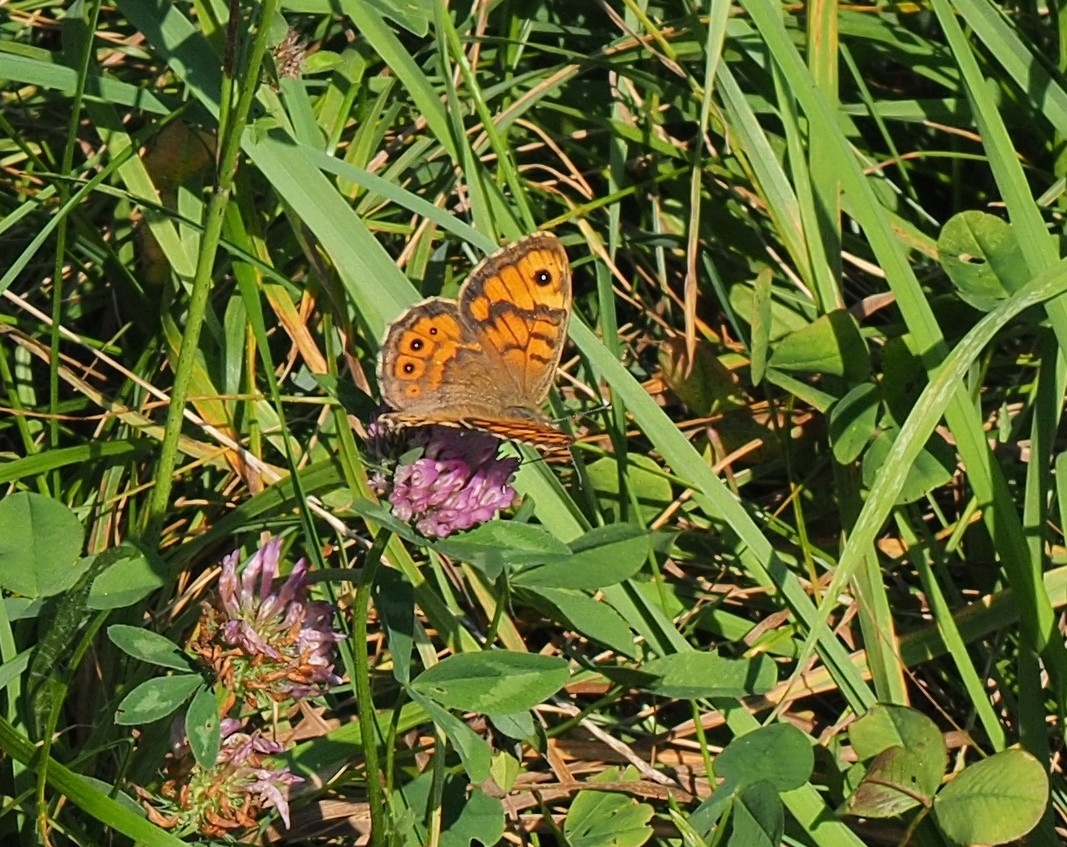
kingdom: Animalia
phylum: Arthropoda
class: Insecta
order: Lepidoptera
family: Nymphalidae
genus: Pararge
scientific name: Pararge Lasiommata megera
